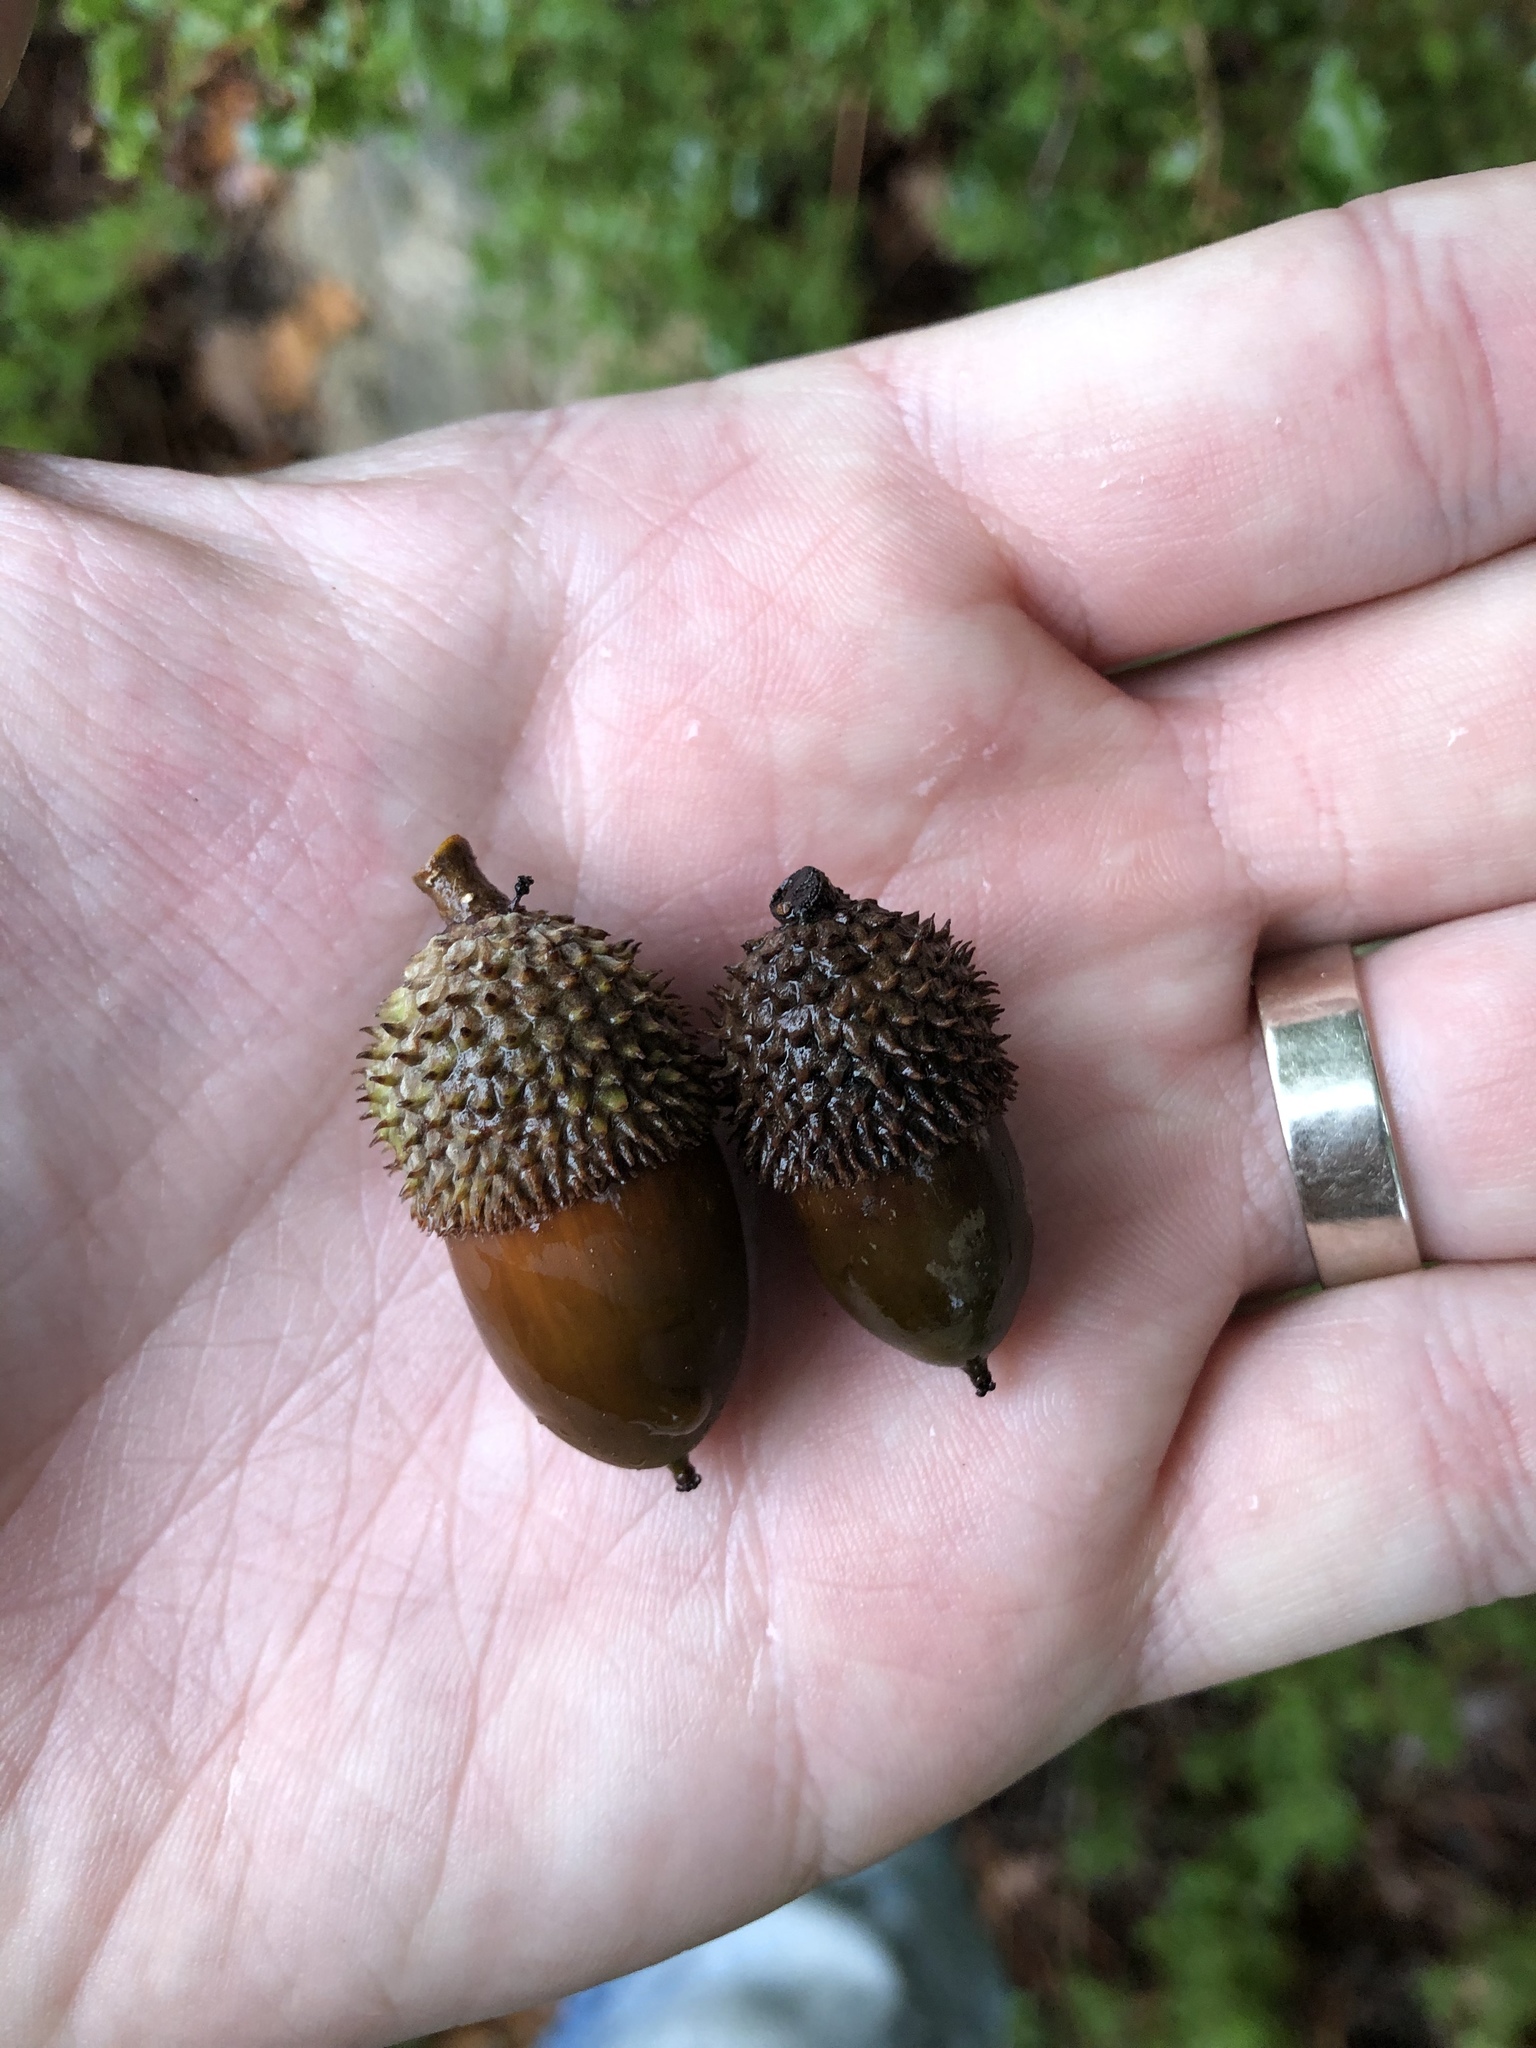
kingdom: Plantae
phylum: Tracheophyta
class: Magnoliopsida
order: Fagales
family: Fagaceae
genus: Quercus
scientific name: Quercus coccifera
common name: Kermes oak
